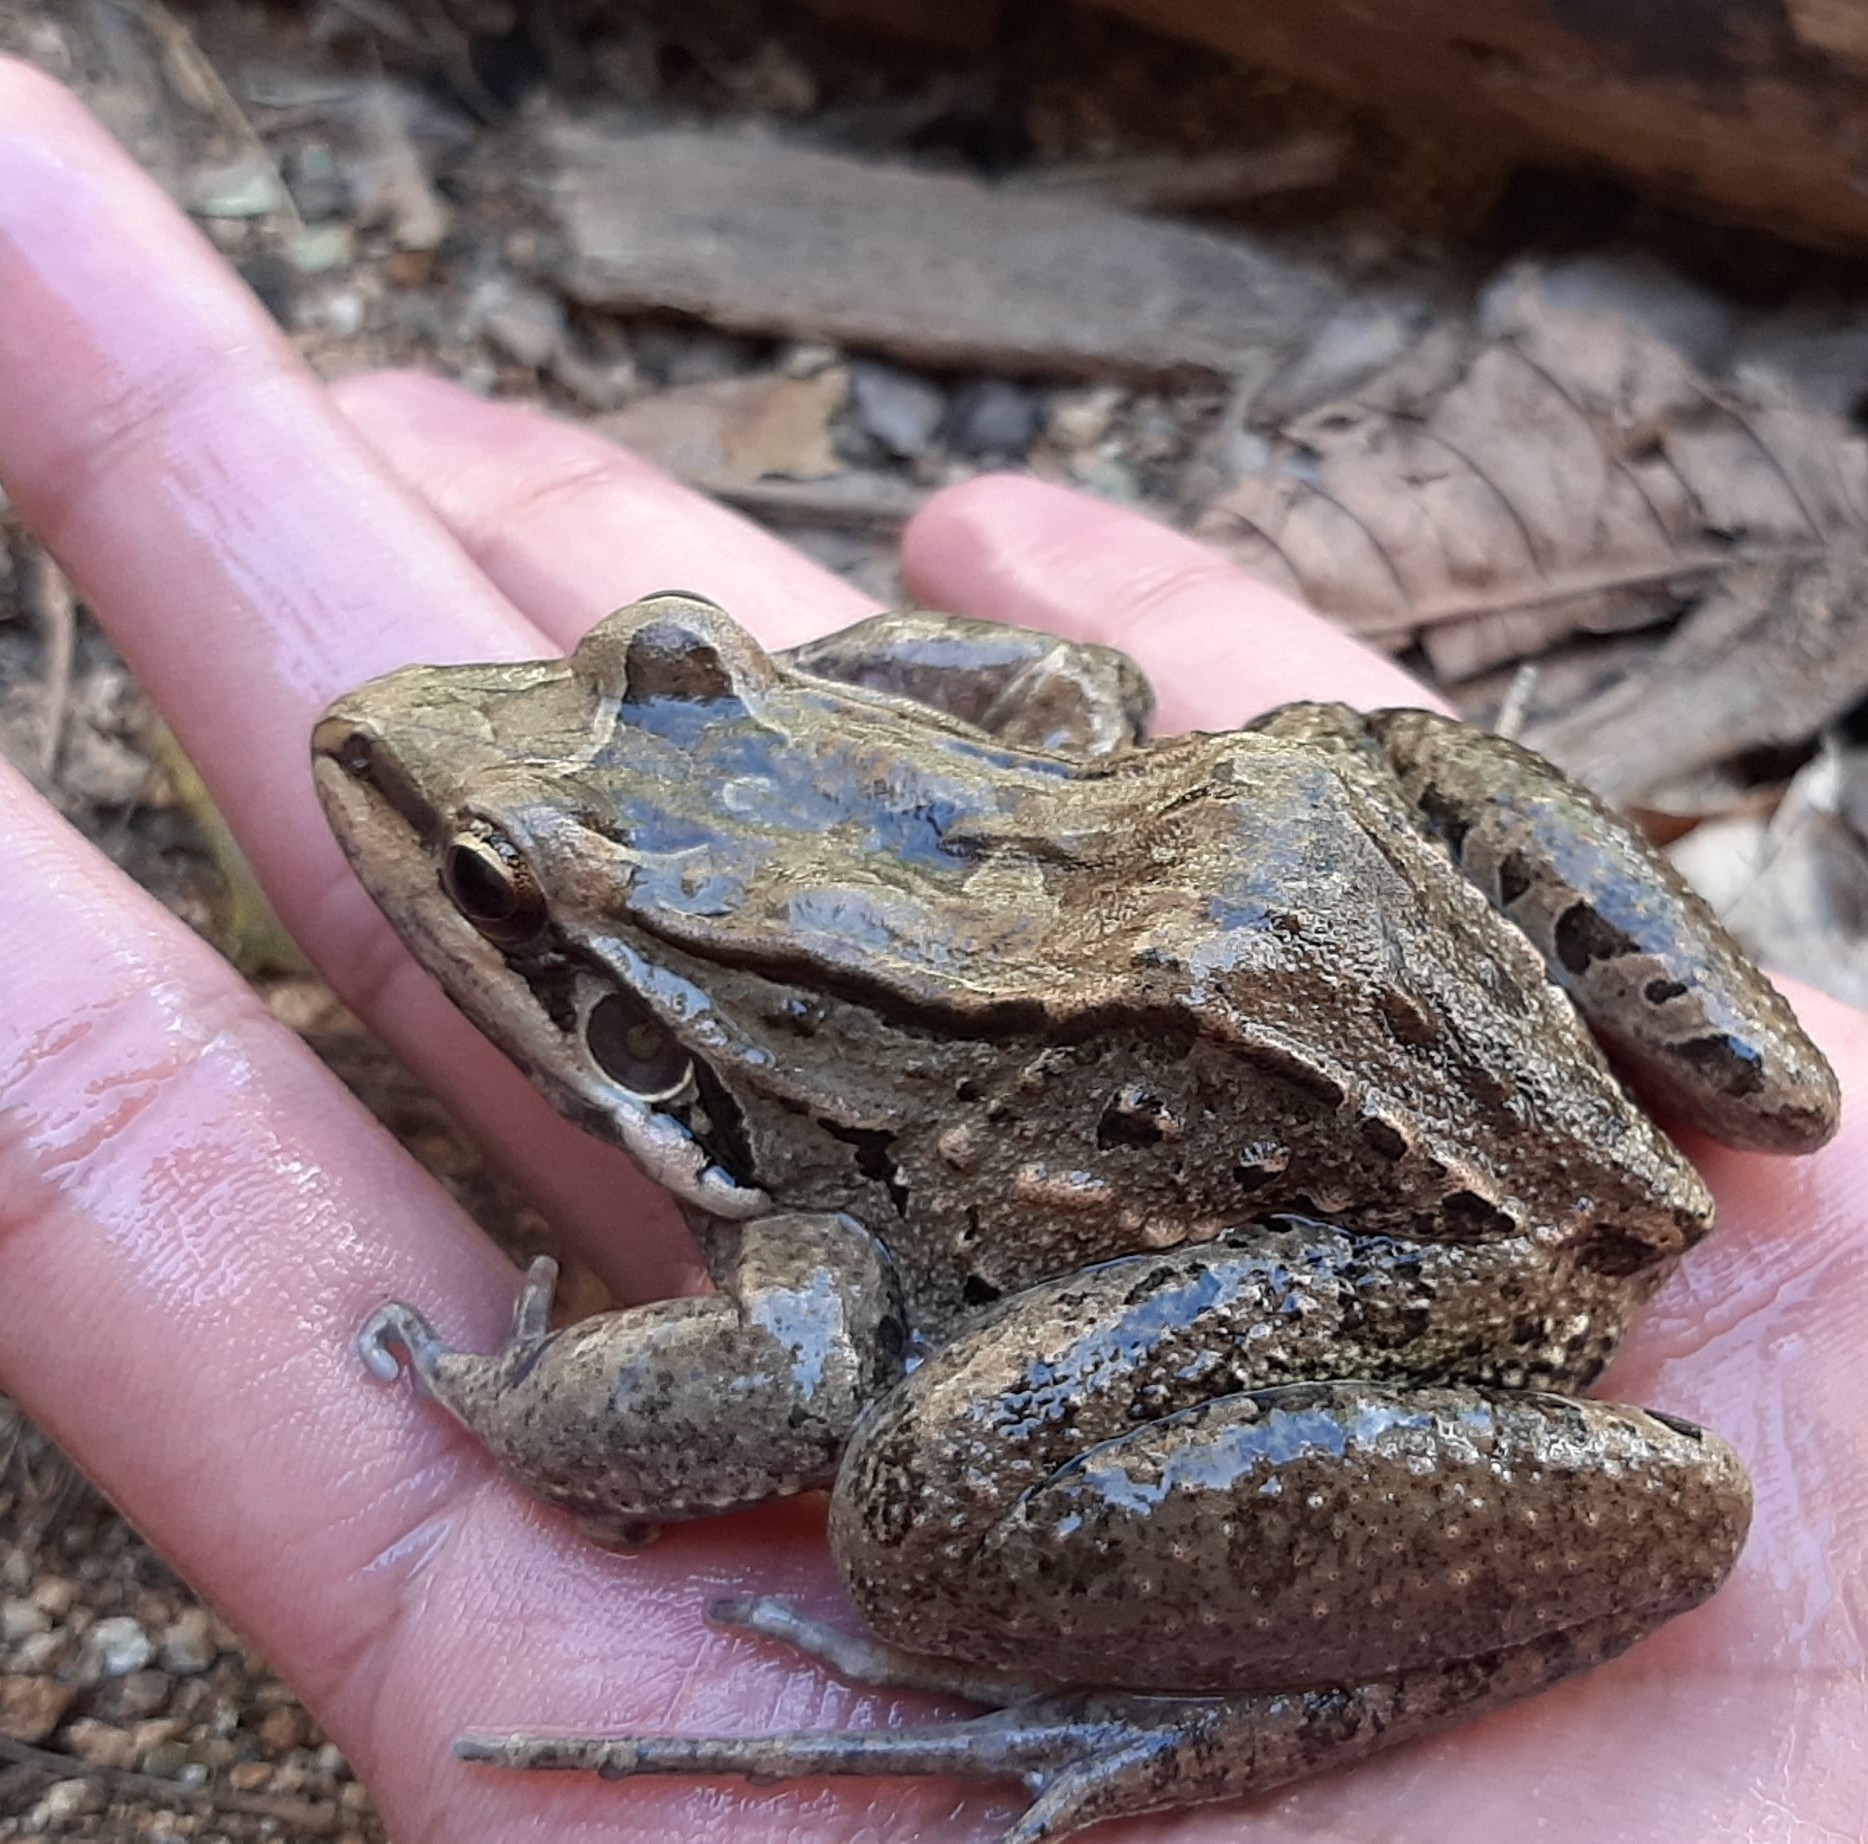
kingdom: Animalia
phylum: Chordata
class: Amphibia
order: Anura
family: Leptodactylidae
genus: Leptodactylus
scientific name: Leptodactylus insularum
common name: San miguel island frog
